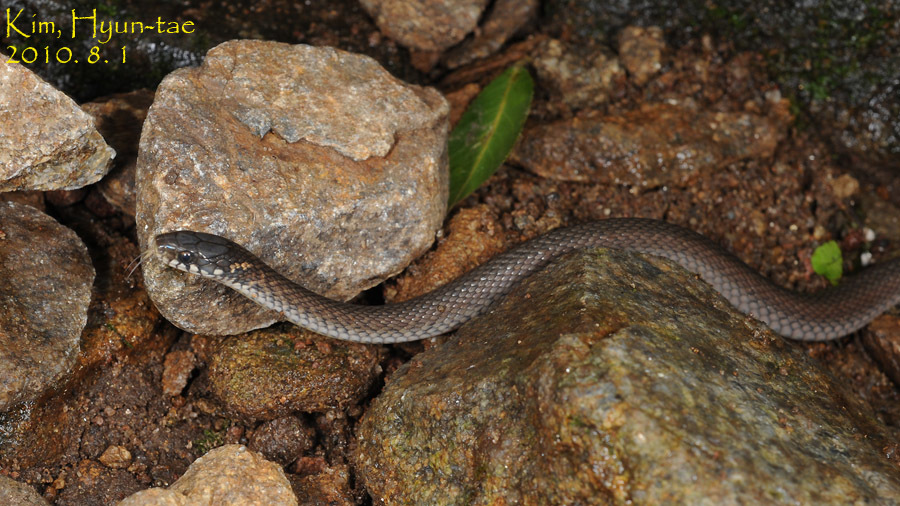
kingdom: Animalia
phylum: Chordata
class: Squamata
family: Colubridae
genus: Hebius
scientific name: Hebius vibakari
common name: Japanese keelback
